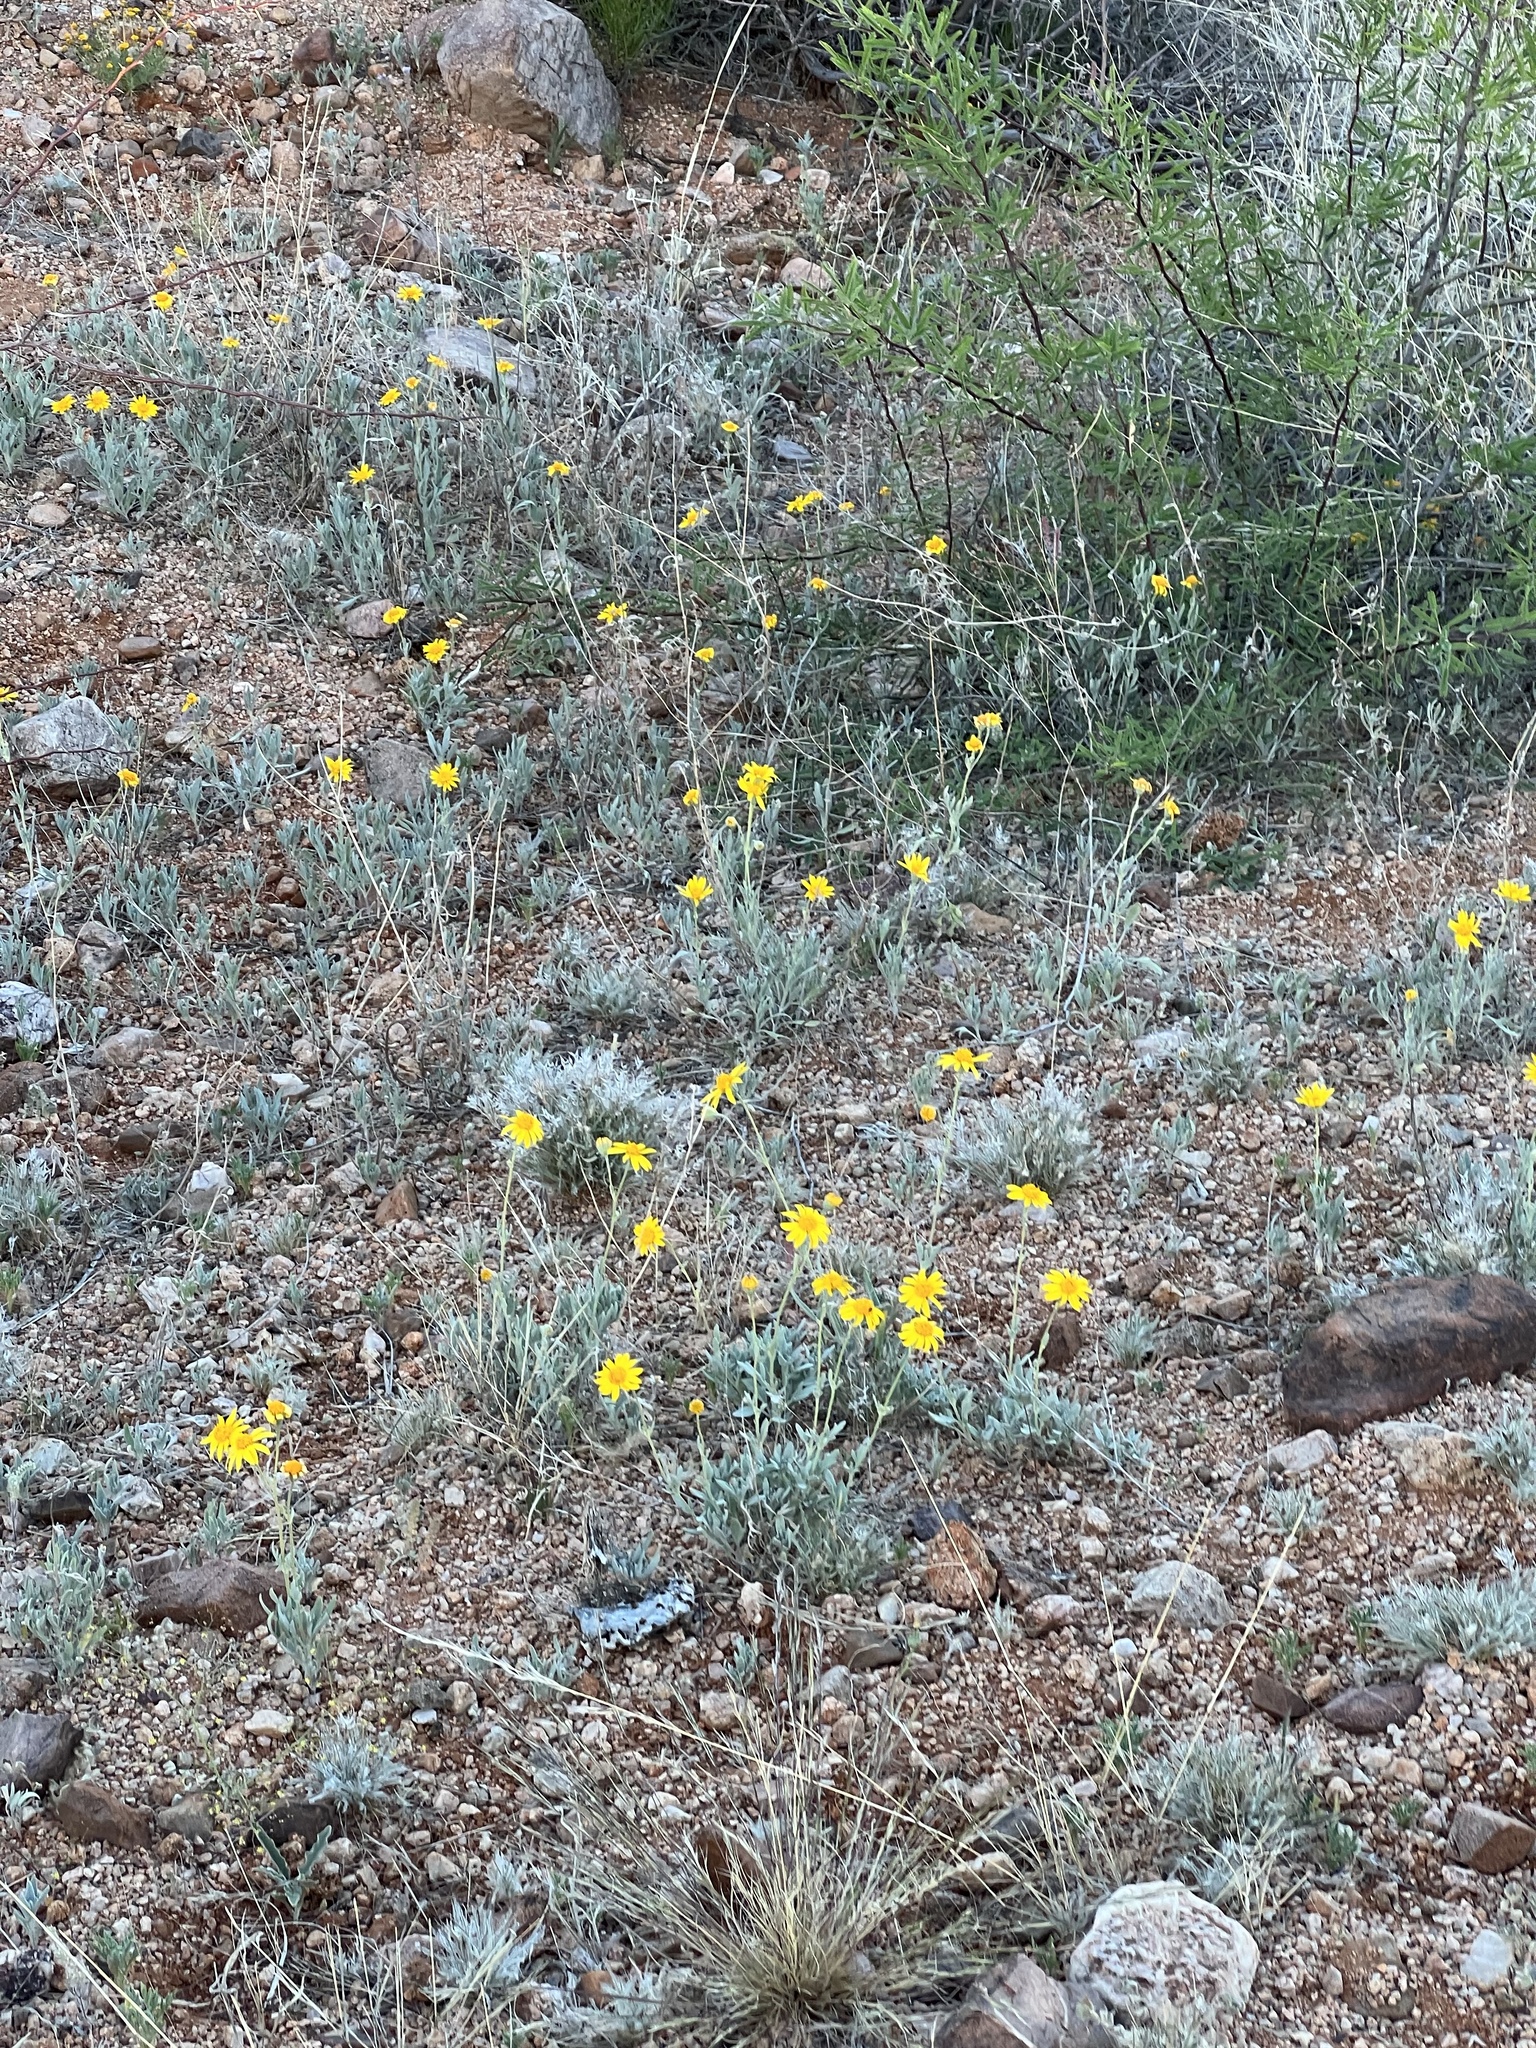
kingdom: Plantae
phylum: Tracheophyta
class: Magnoliopsida
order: Asterales
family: Asteraceae
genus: Picradeniopsis
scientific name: Picradeniopsis absinthifolia
